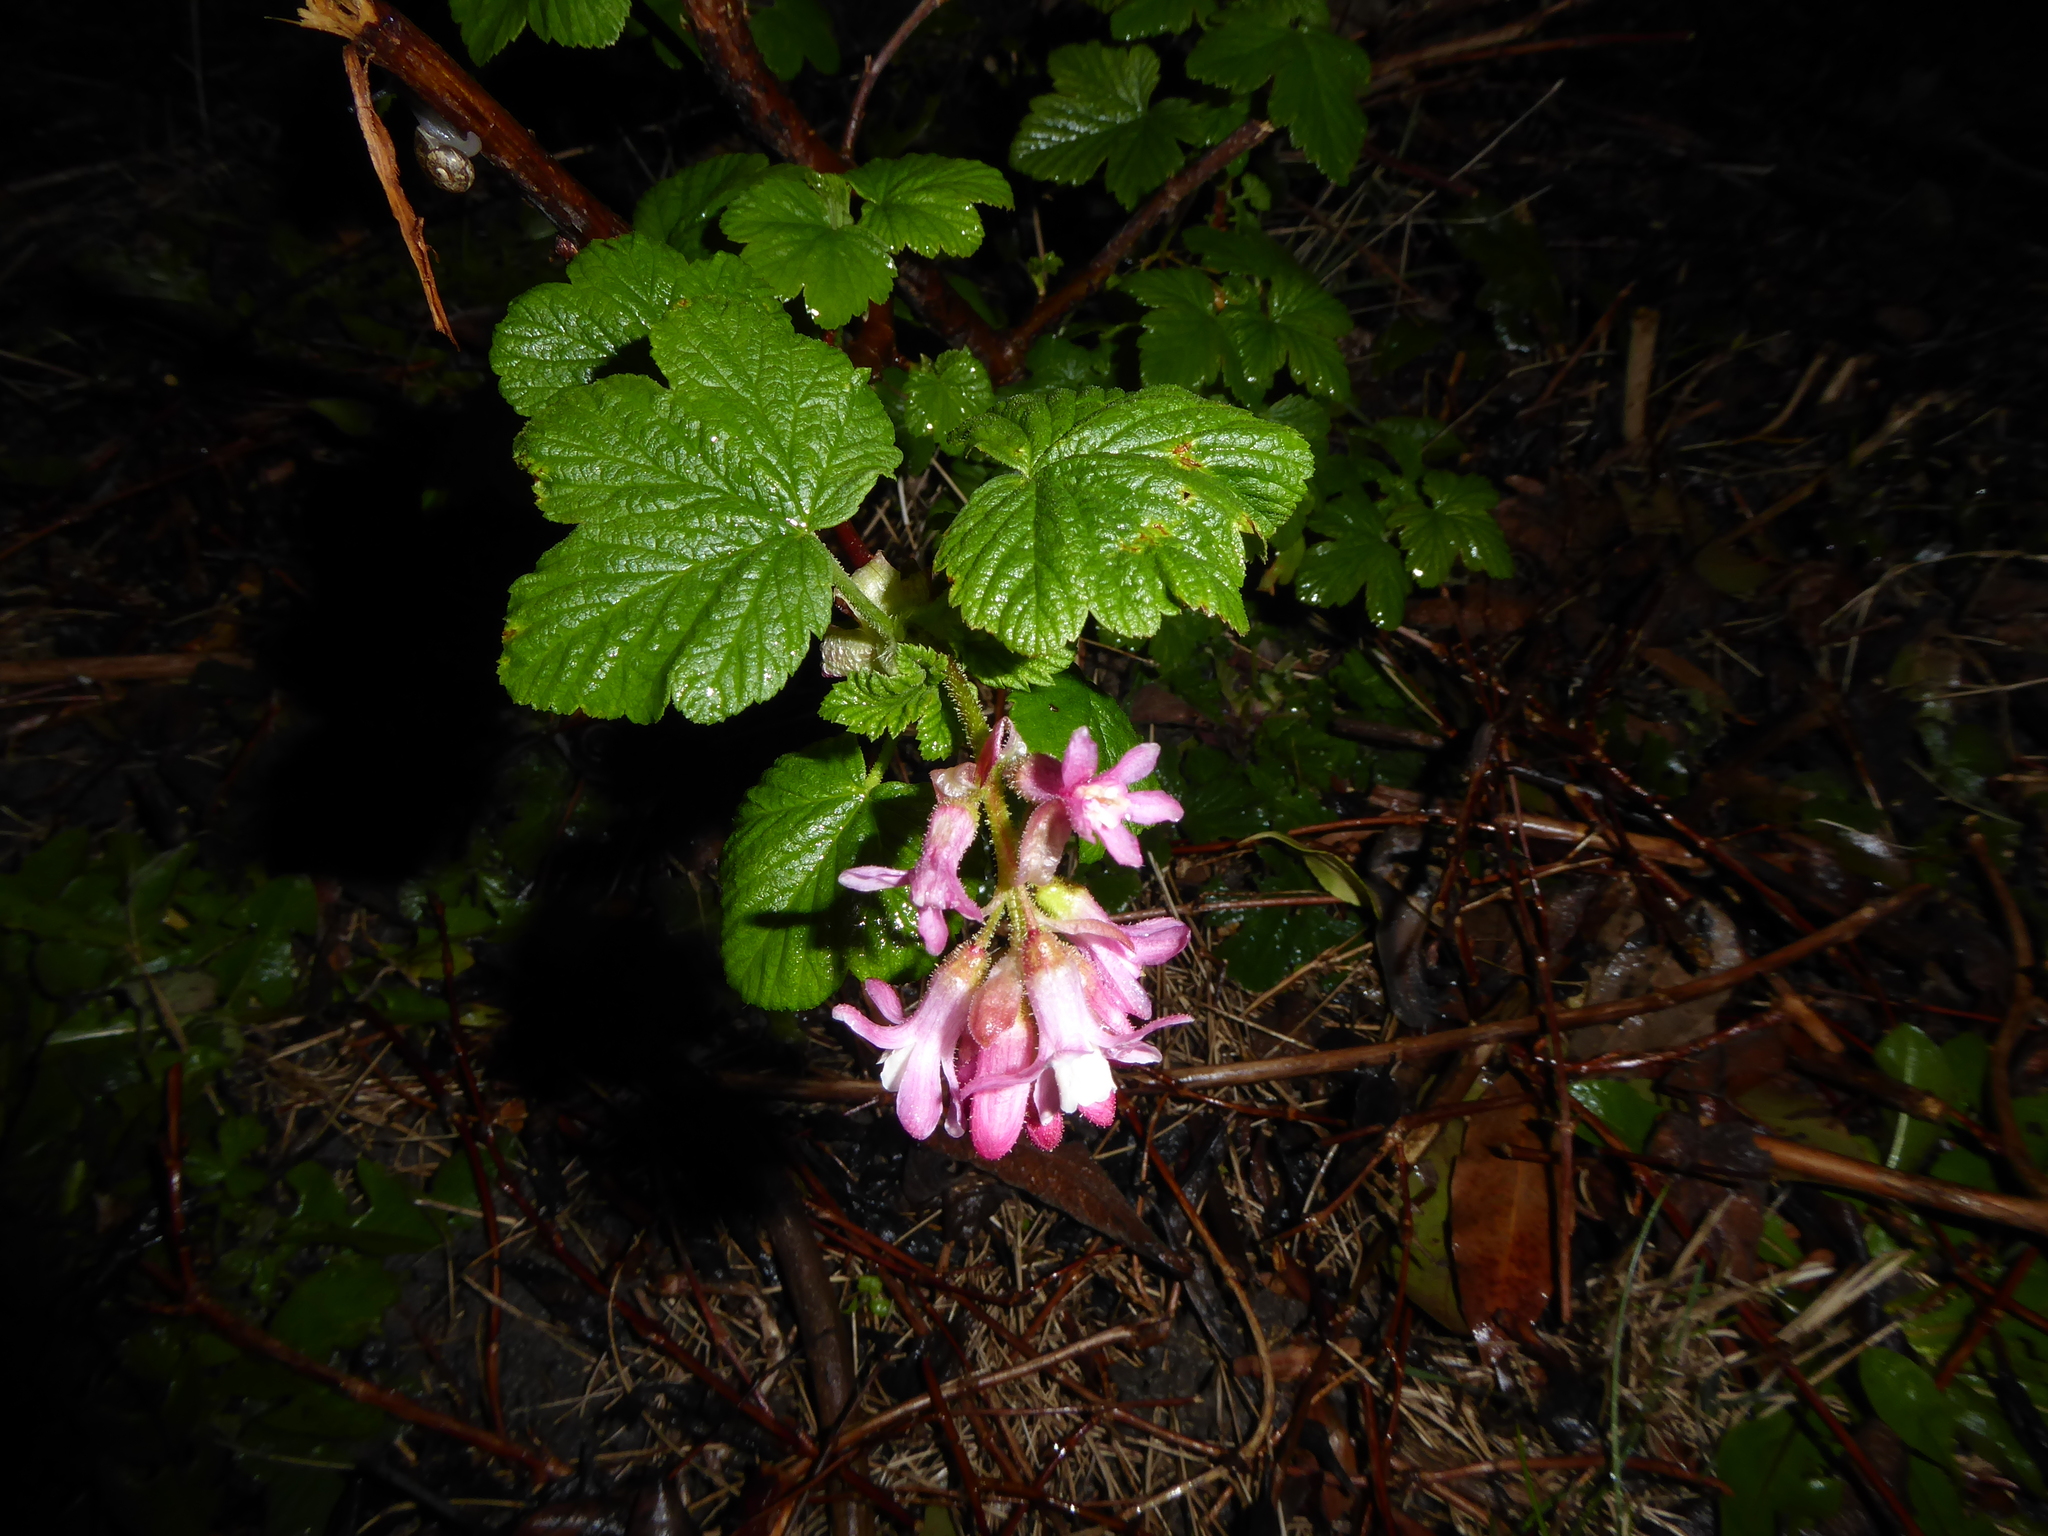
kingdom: Plantae
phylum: Tracheophyta
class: Magnoliopsida
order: Saxifragales
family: Grossulariaceae
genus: Ribes
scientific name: Ribes sanguineum
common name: Flowering currant
